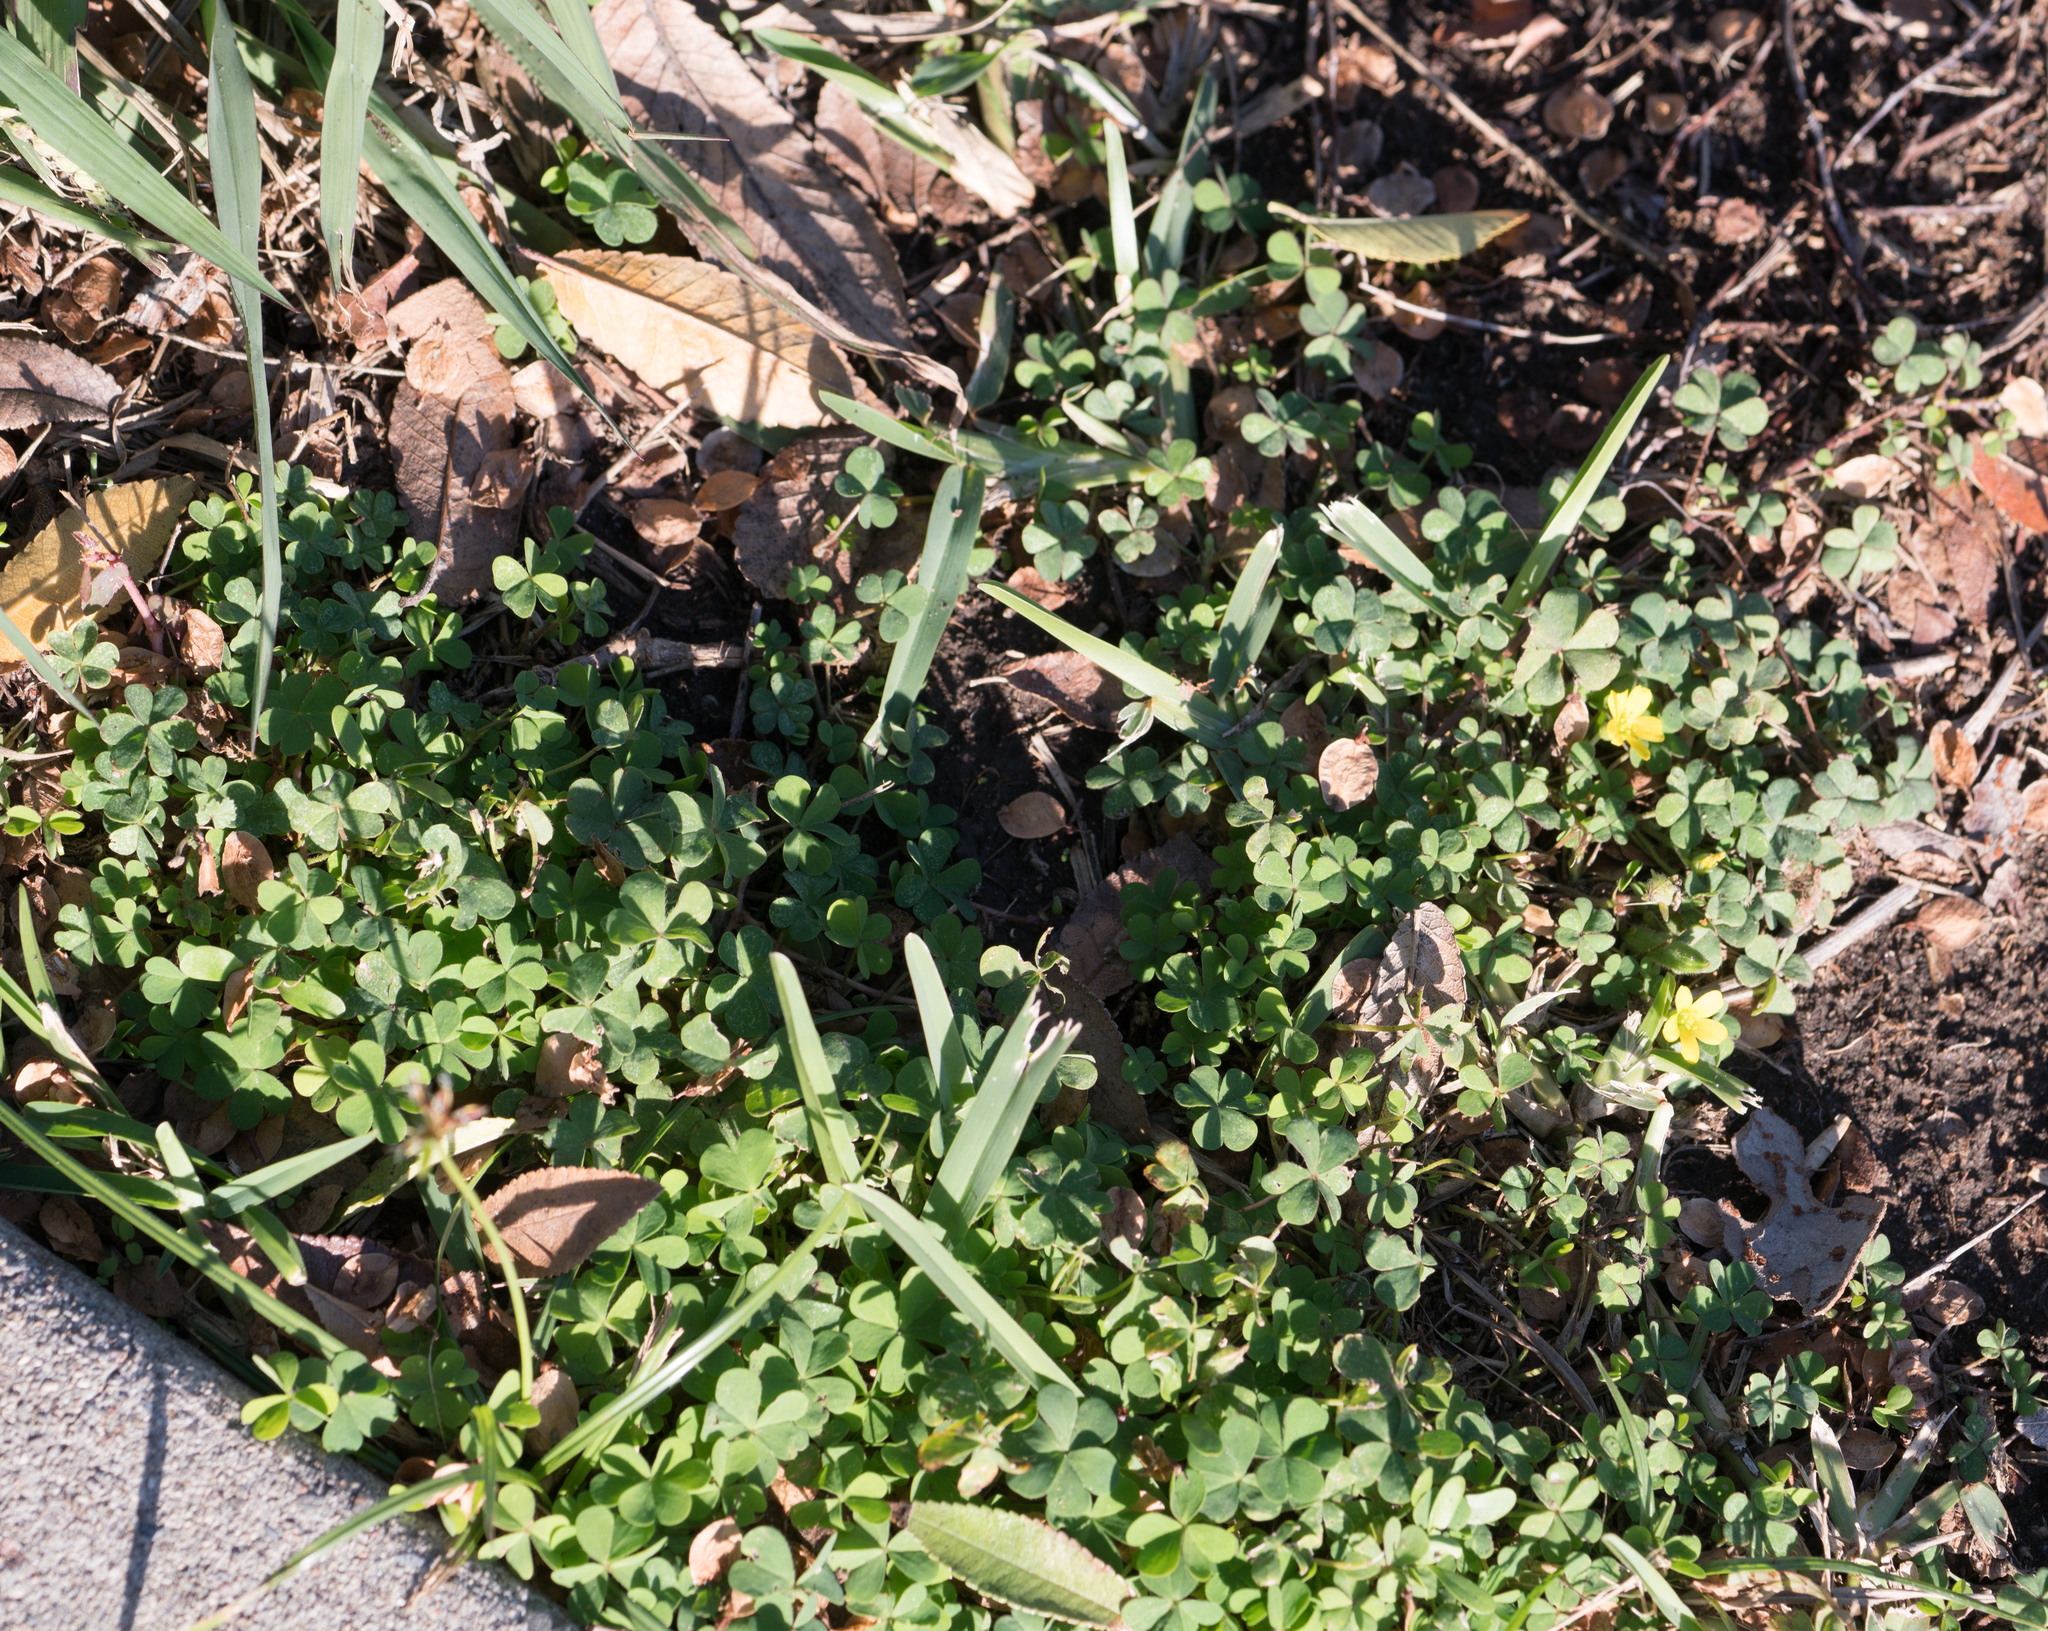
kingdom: Plantae
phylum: Tracheophyta
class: Magnoliopsida
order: Oxalidales
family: Oxalidaceae
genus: Oxalis
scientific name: Oxalis corniculata
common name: Procumbent yellow-sorrel
